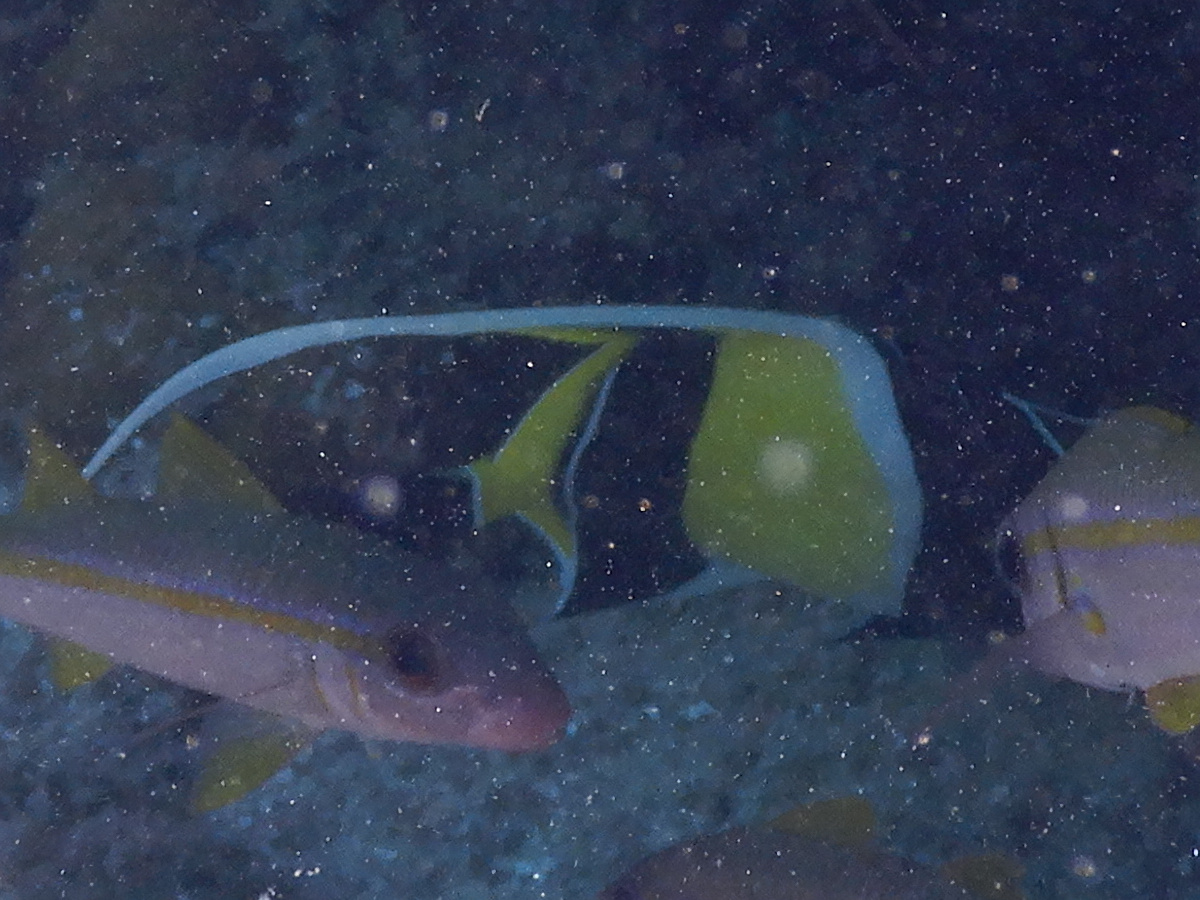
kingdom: Animalia
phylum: Chordata
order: Perciformes
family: Zanclidae
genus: Zanclus
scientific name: Zanclus cornutus
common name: Moorish idol
